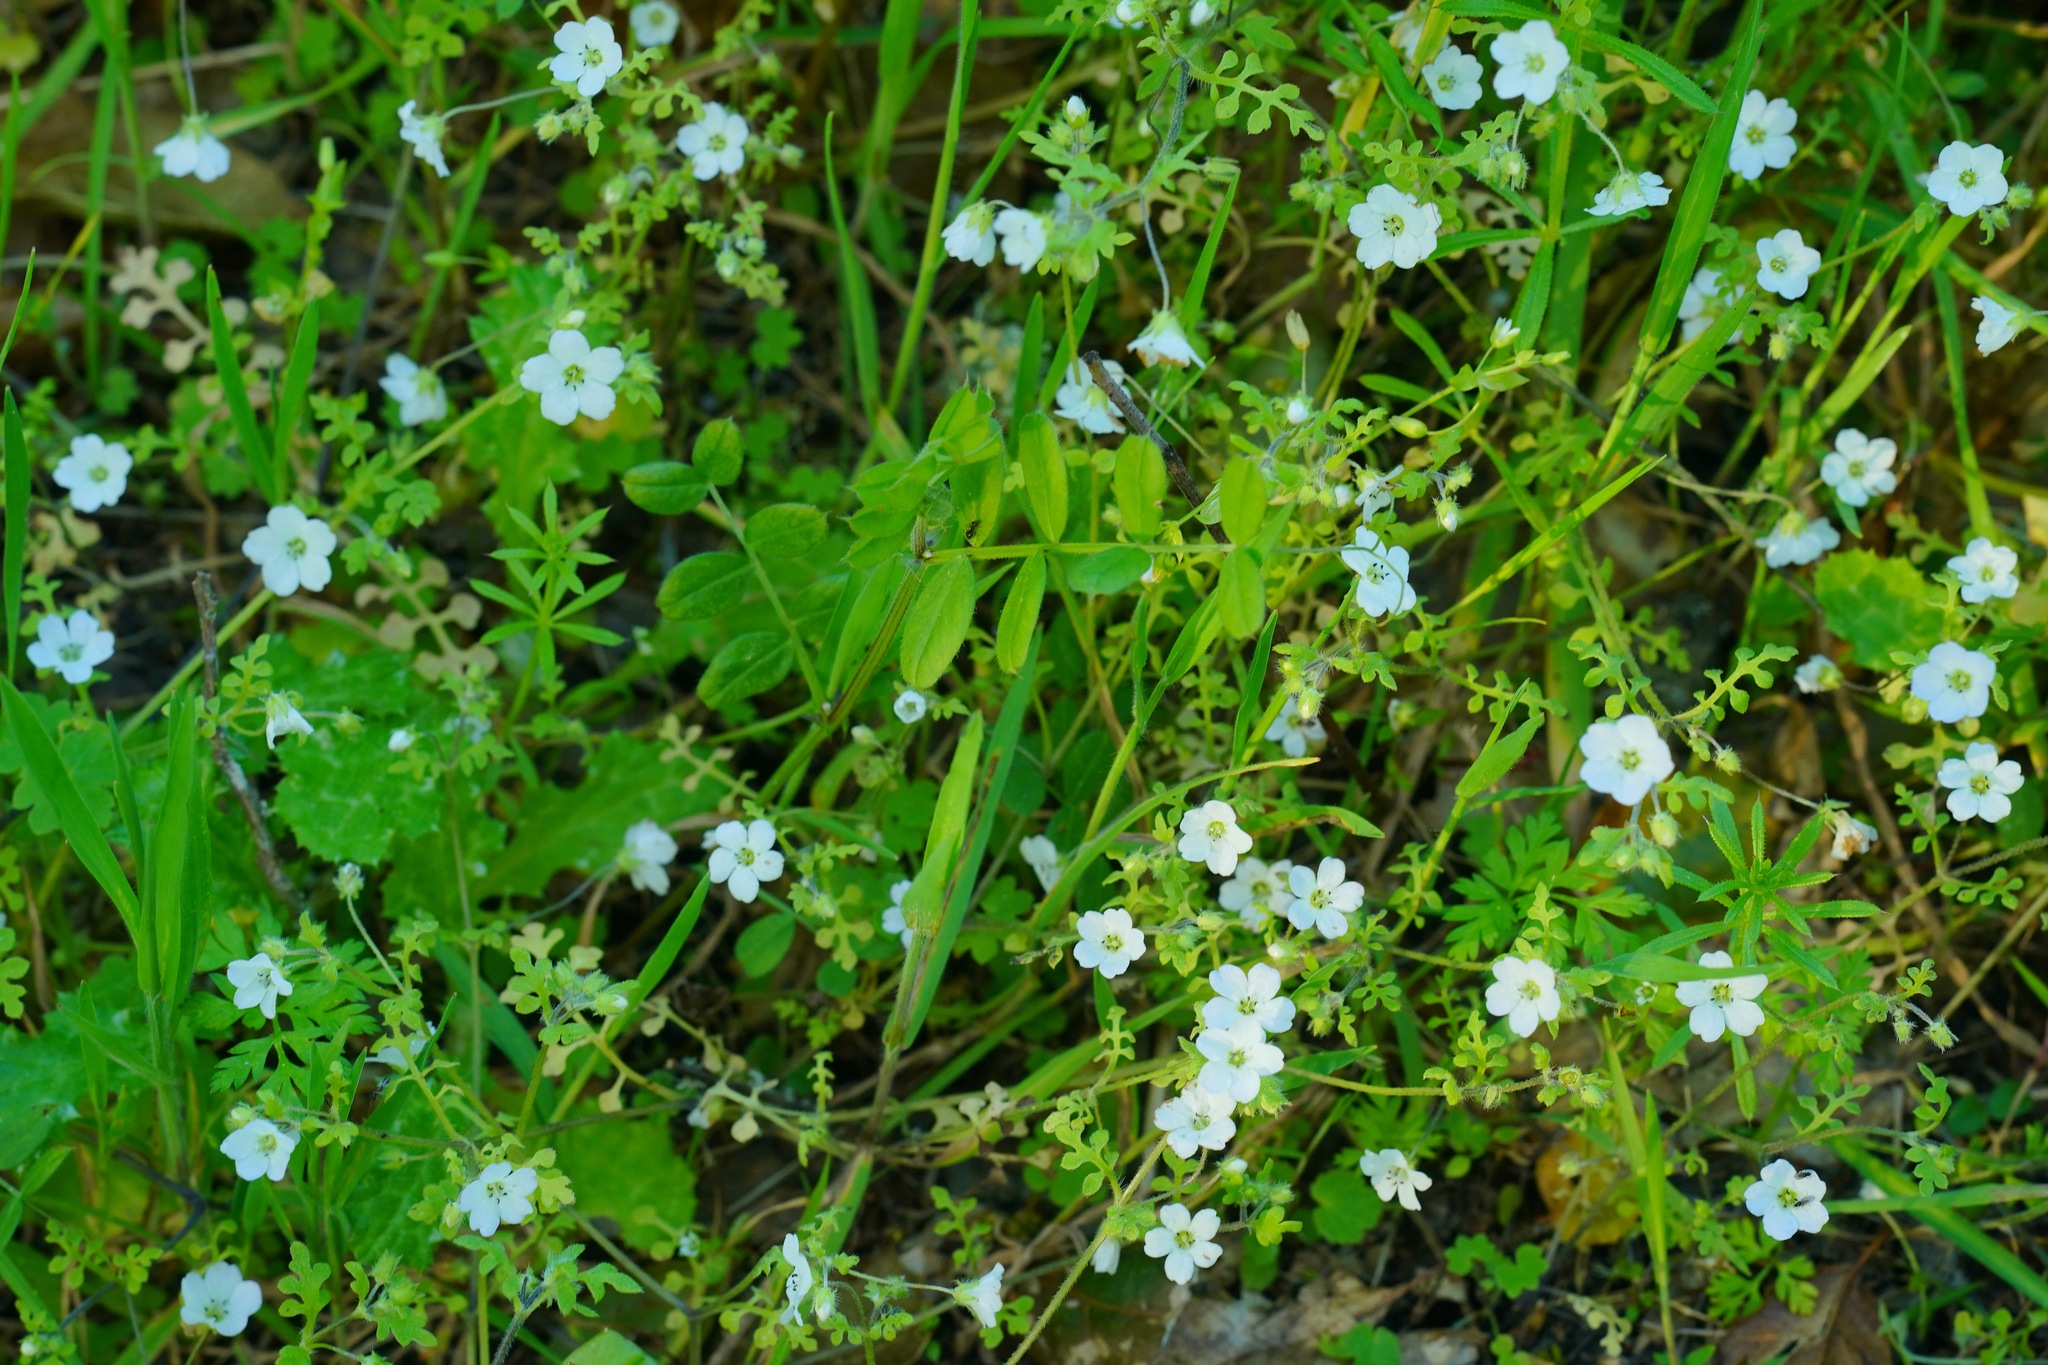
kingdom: Plantae
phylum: Tracheophyta
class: Magnoliopsida
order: Boraginales
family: Hydrophyllaceae
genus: Nemophila
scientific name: Nemophila heterophylla
